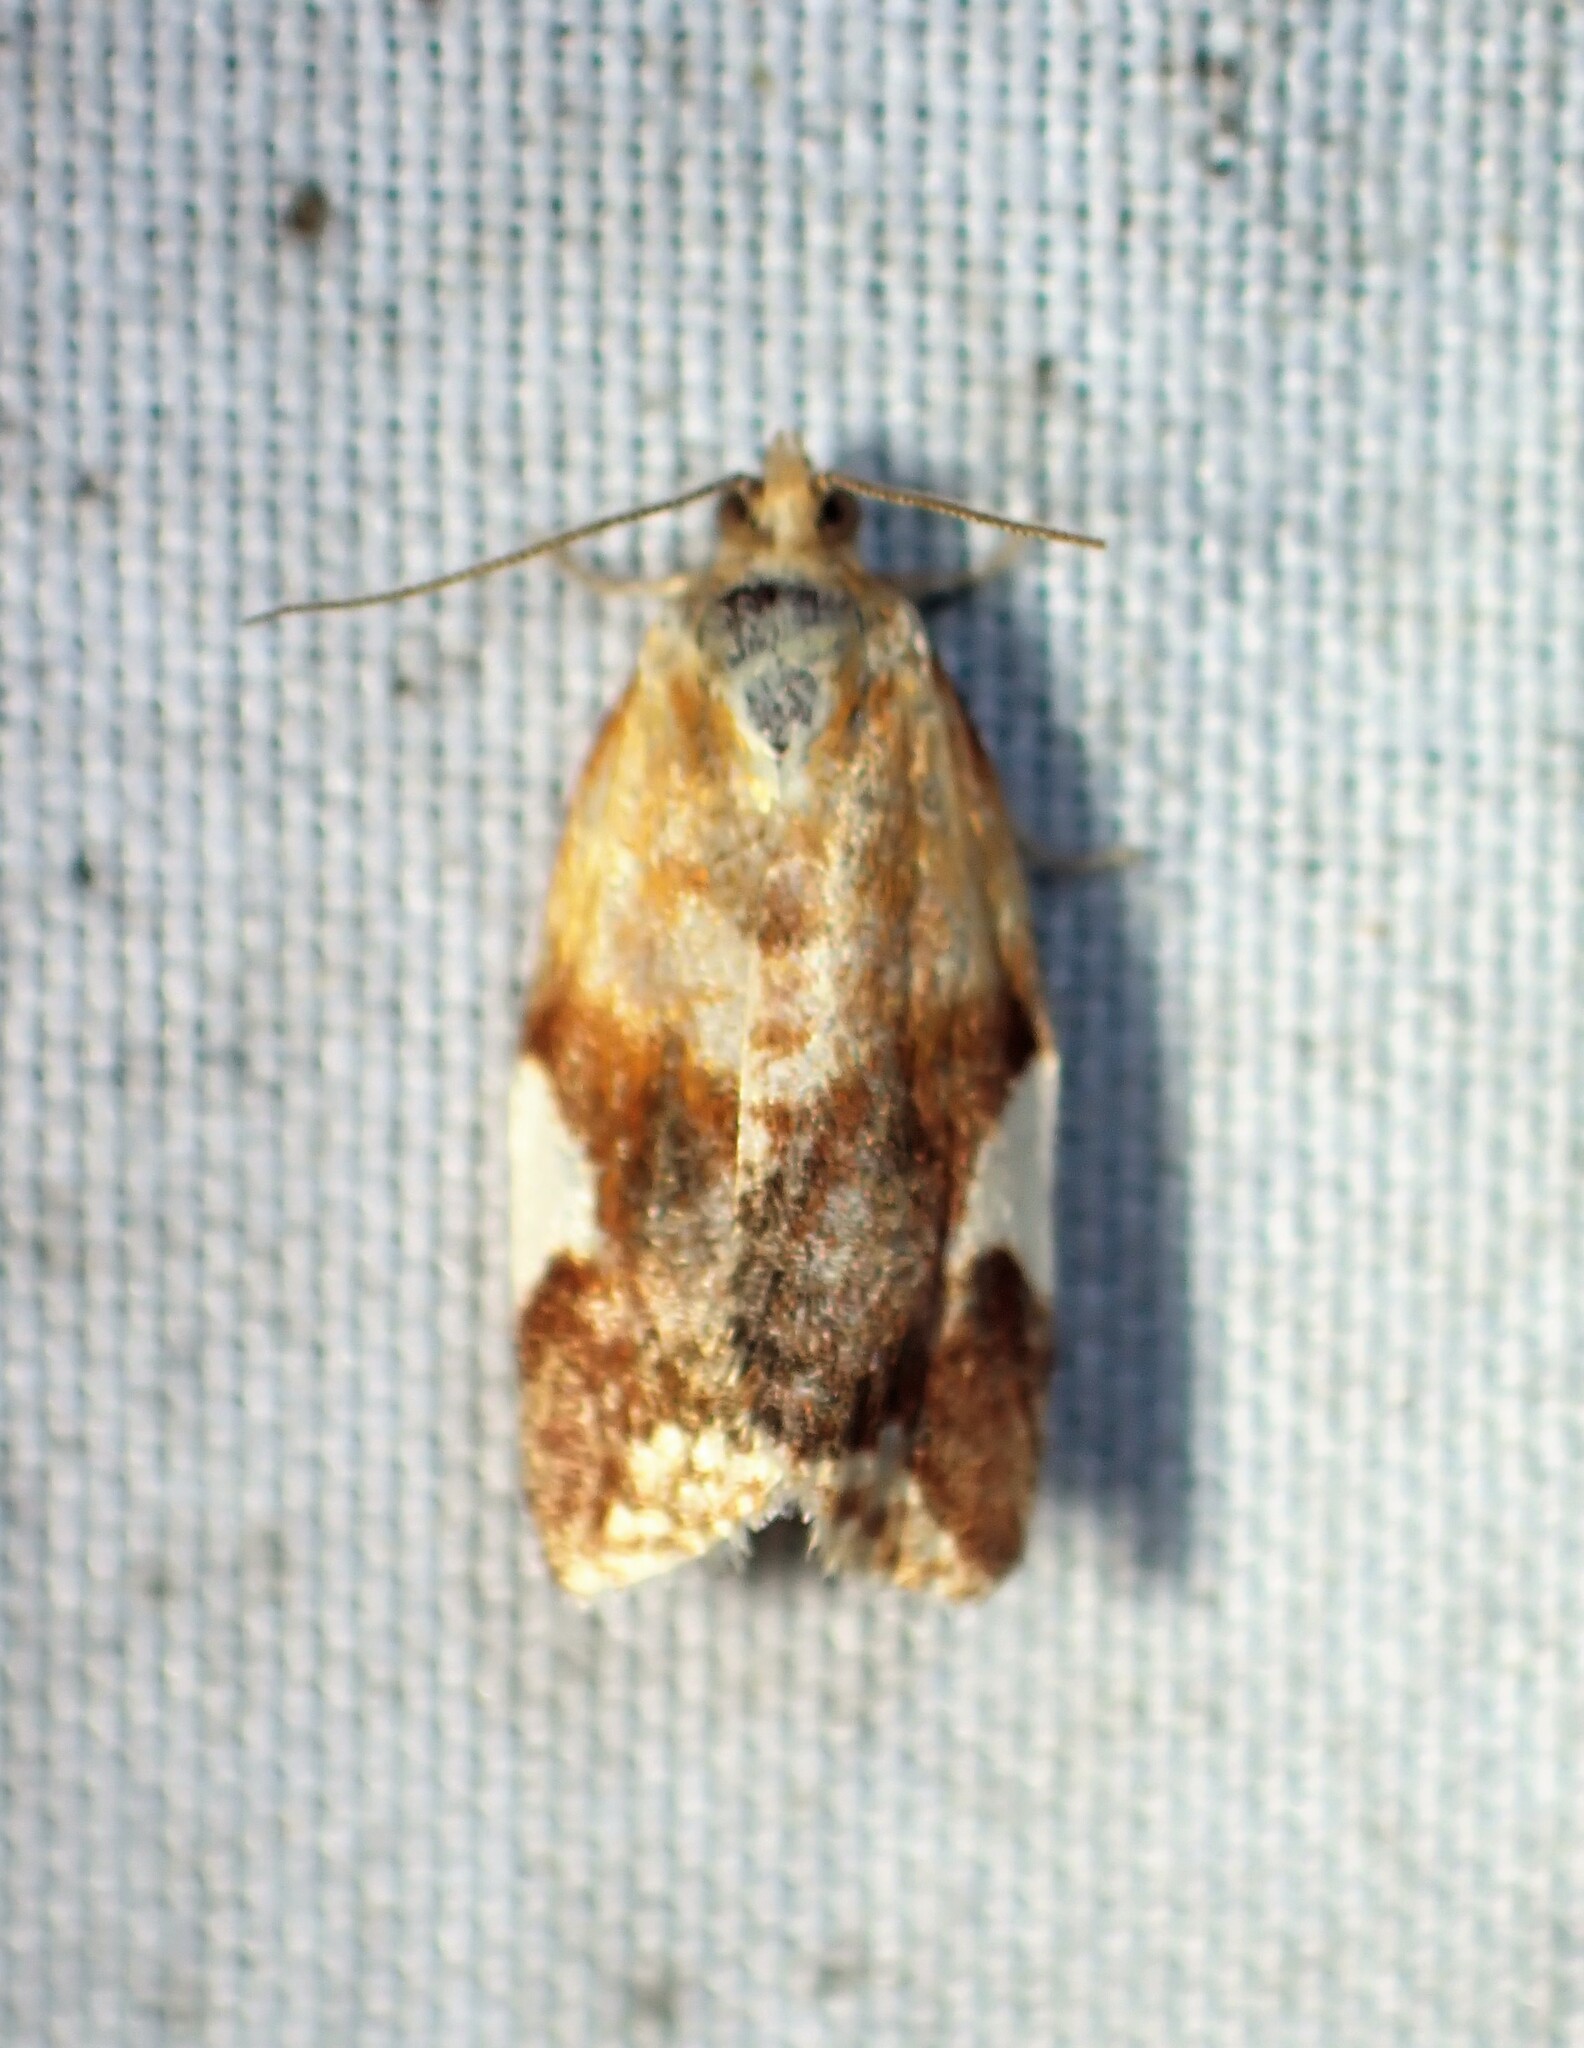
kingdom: Animalia
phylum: Arthropoda
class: Insecta
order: Lepidoptera
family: Tortricidae
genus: Clepsis
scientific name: Clepsis persicana
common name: White triangle tortrix
